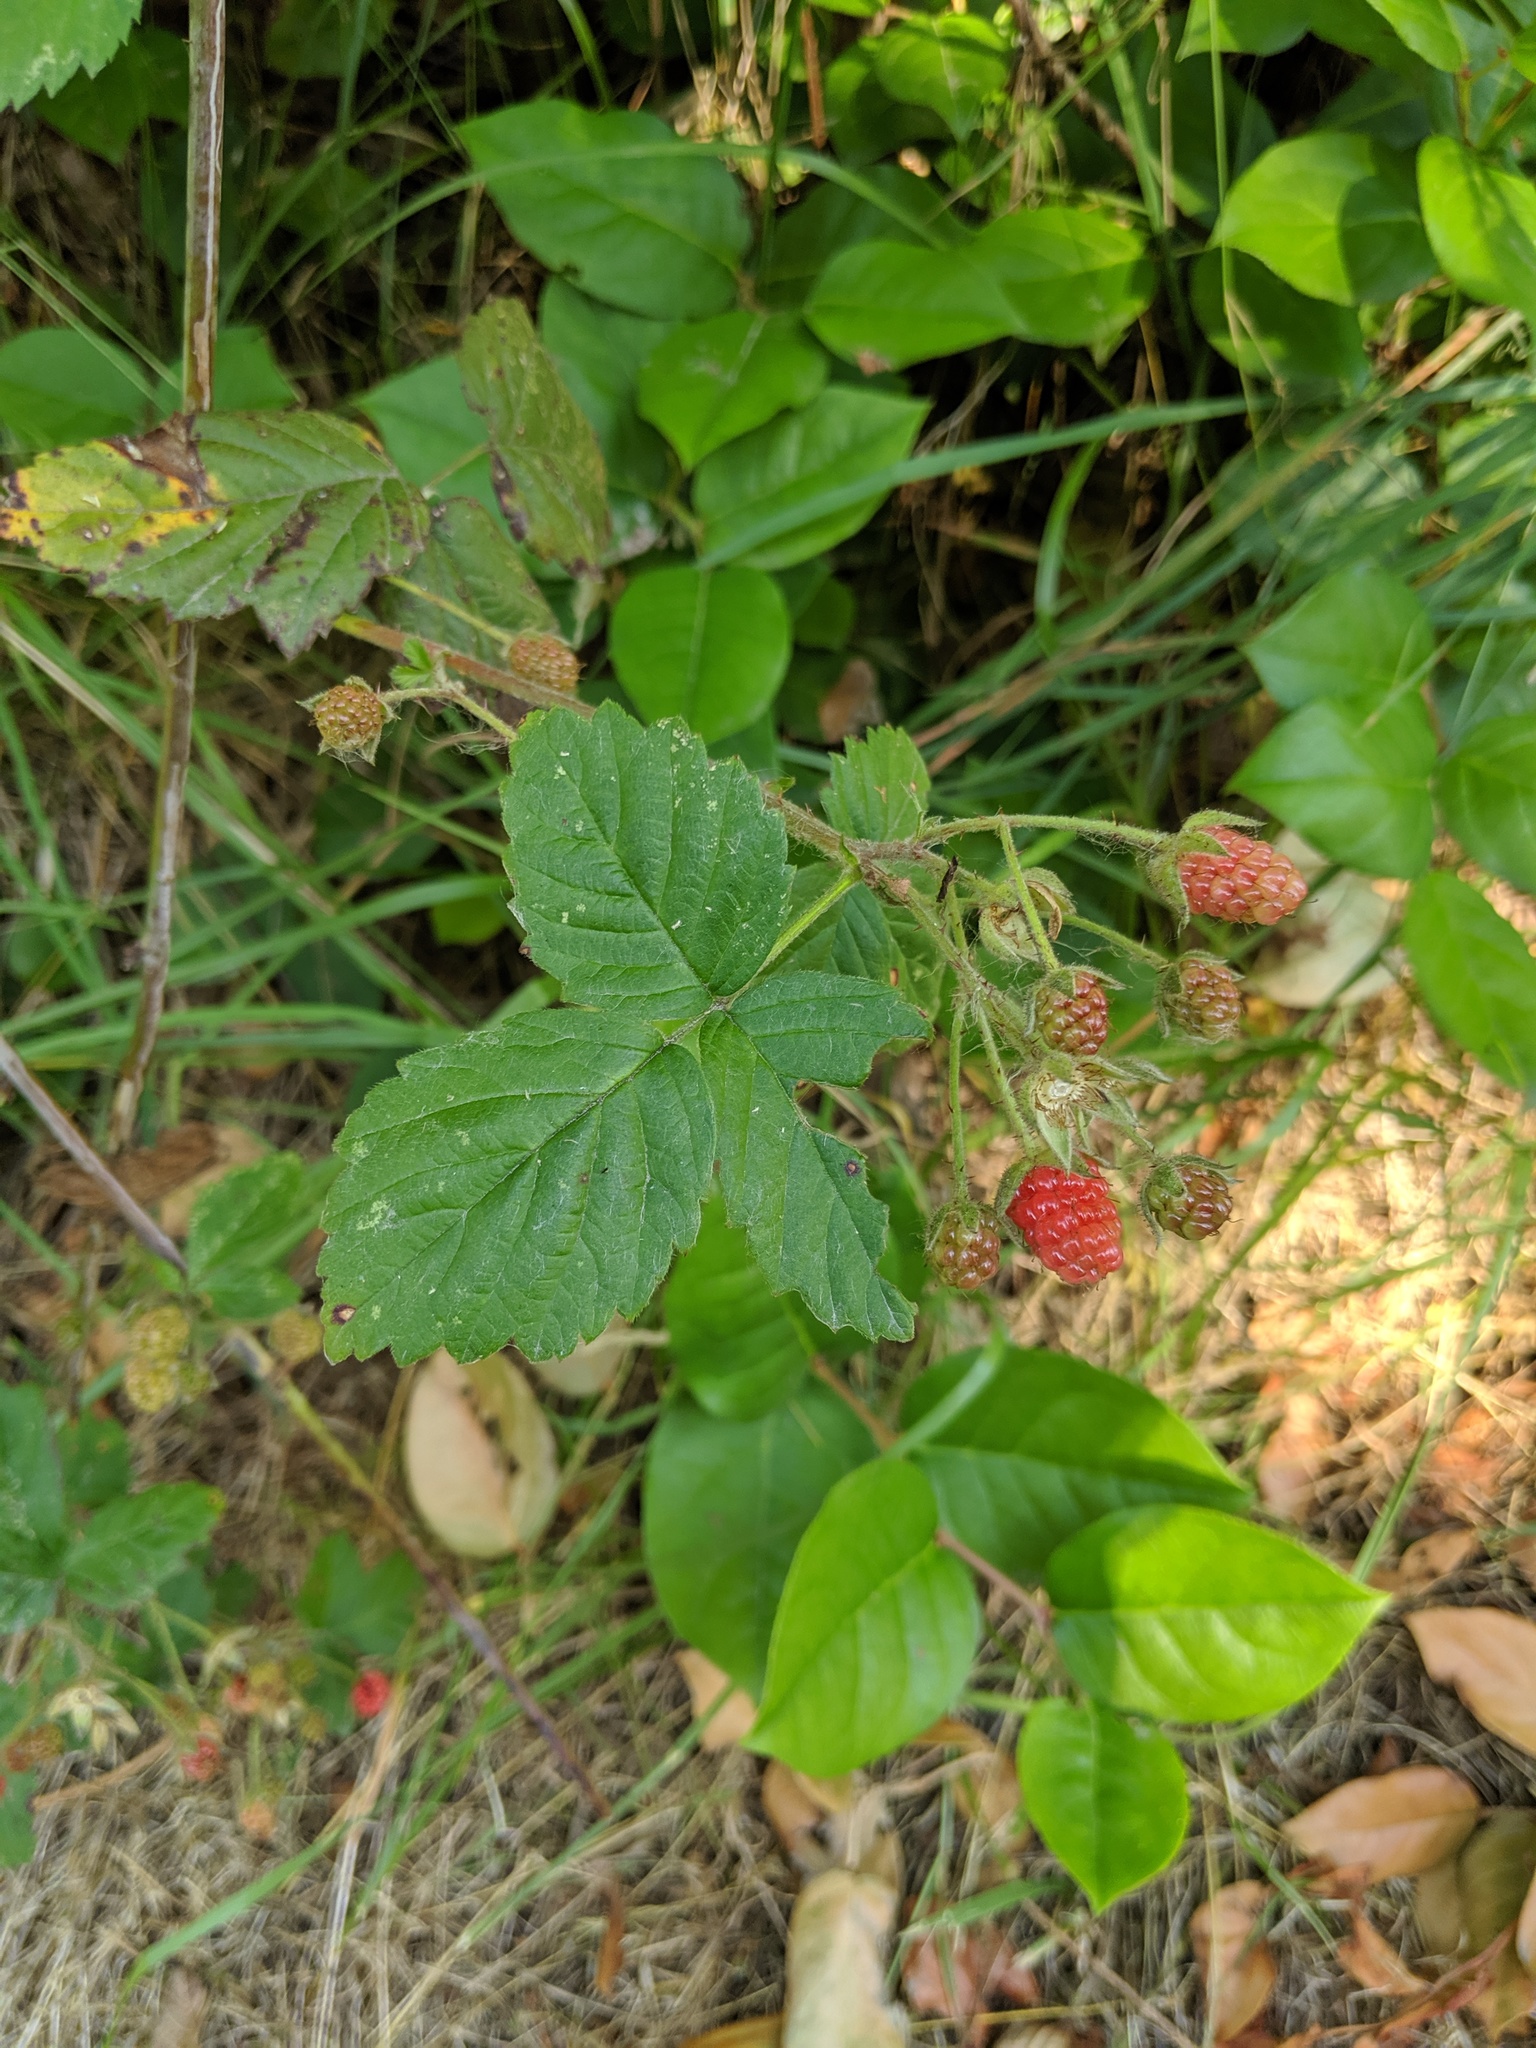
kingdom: Plantae
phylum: Tracheophyta
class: Magnoliopsida
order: Rosales
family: Rosaceae
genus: Rubus
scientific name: Rubus allegheniensis
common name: Allegheny blackberry
